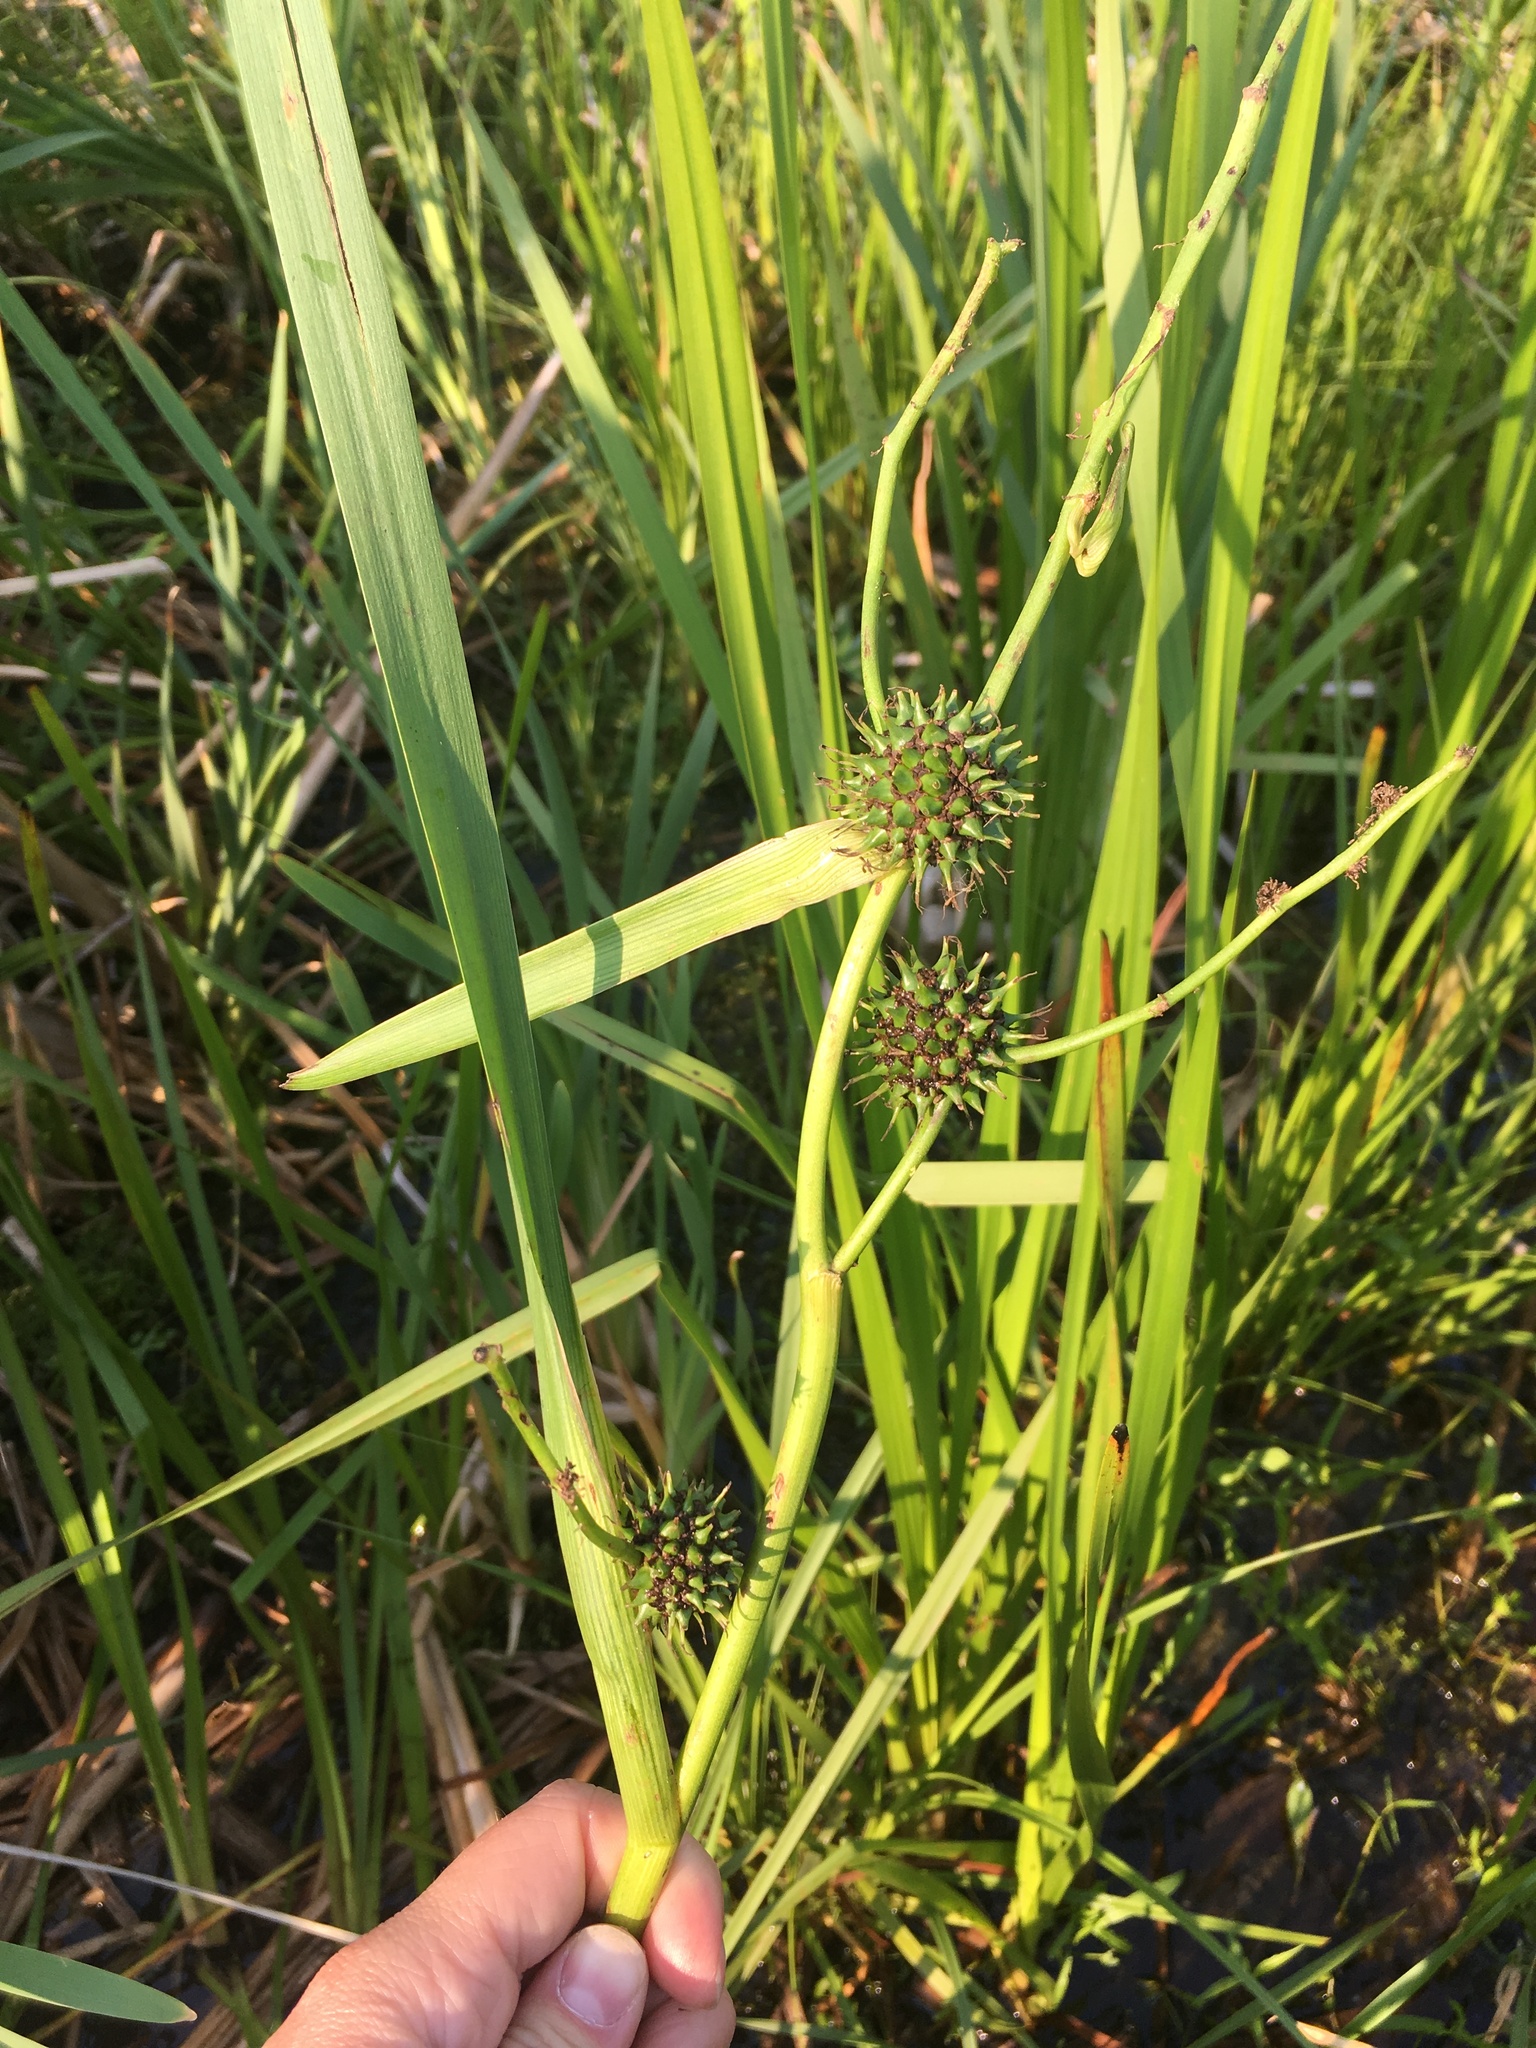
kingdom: Plantae
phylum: Tracheophyta
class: Liliopsida
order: Poales
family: Typhaceae
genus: Sparganium
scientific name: Sparganium eurycarpum
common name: Broad-fruited burreed
